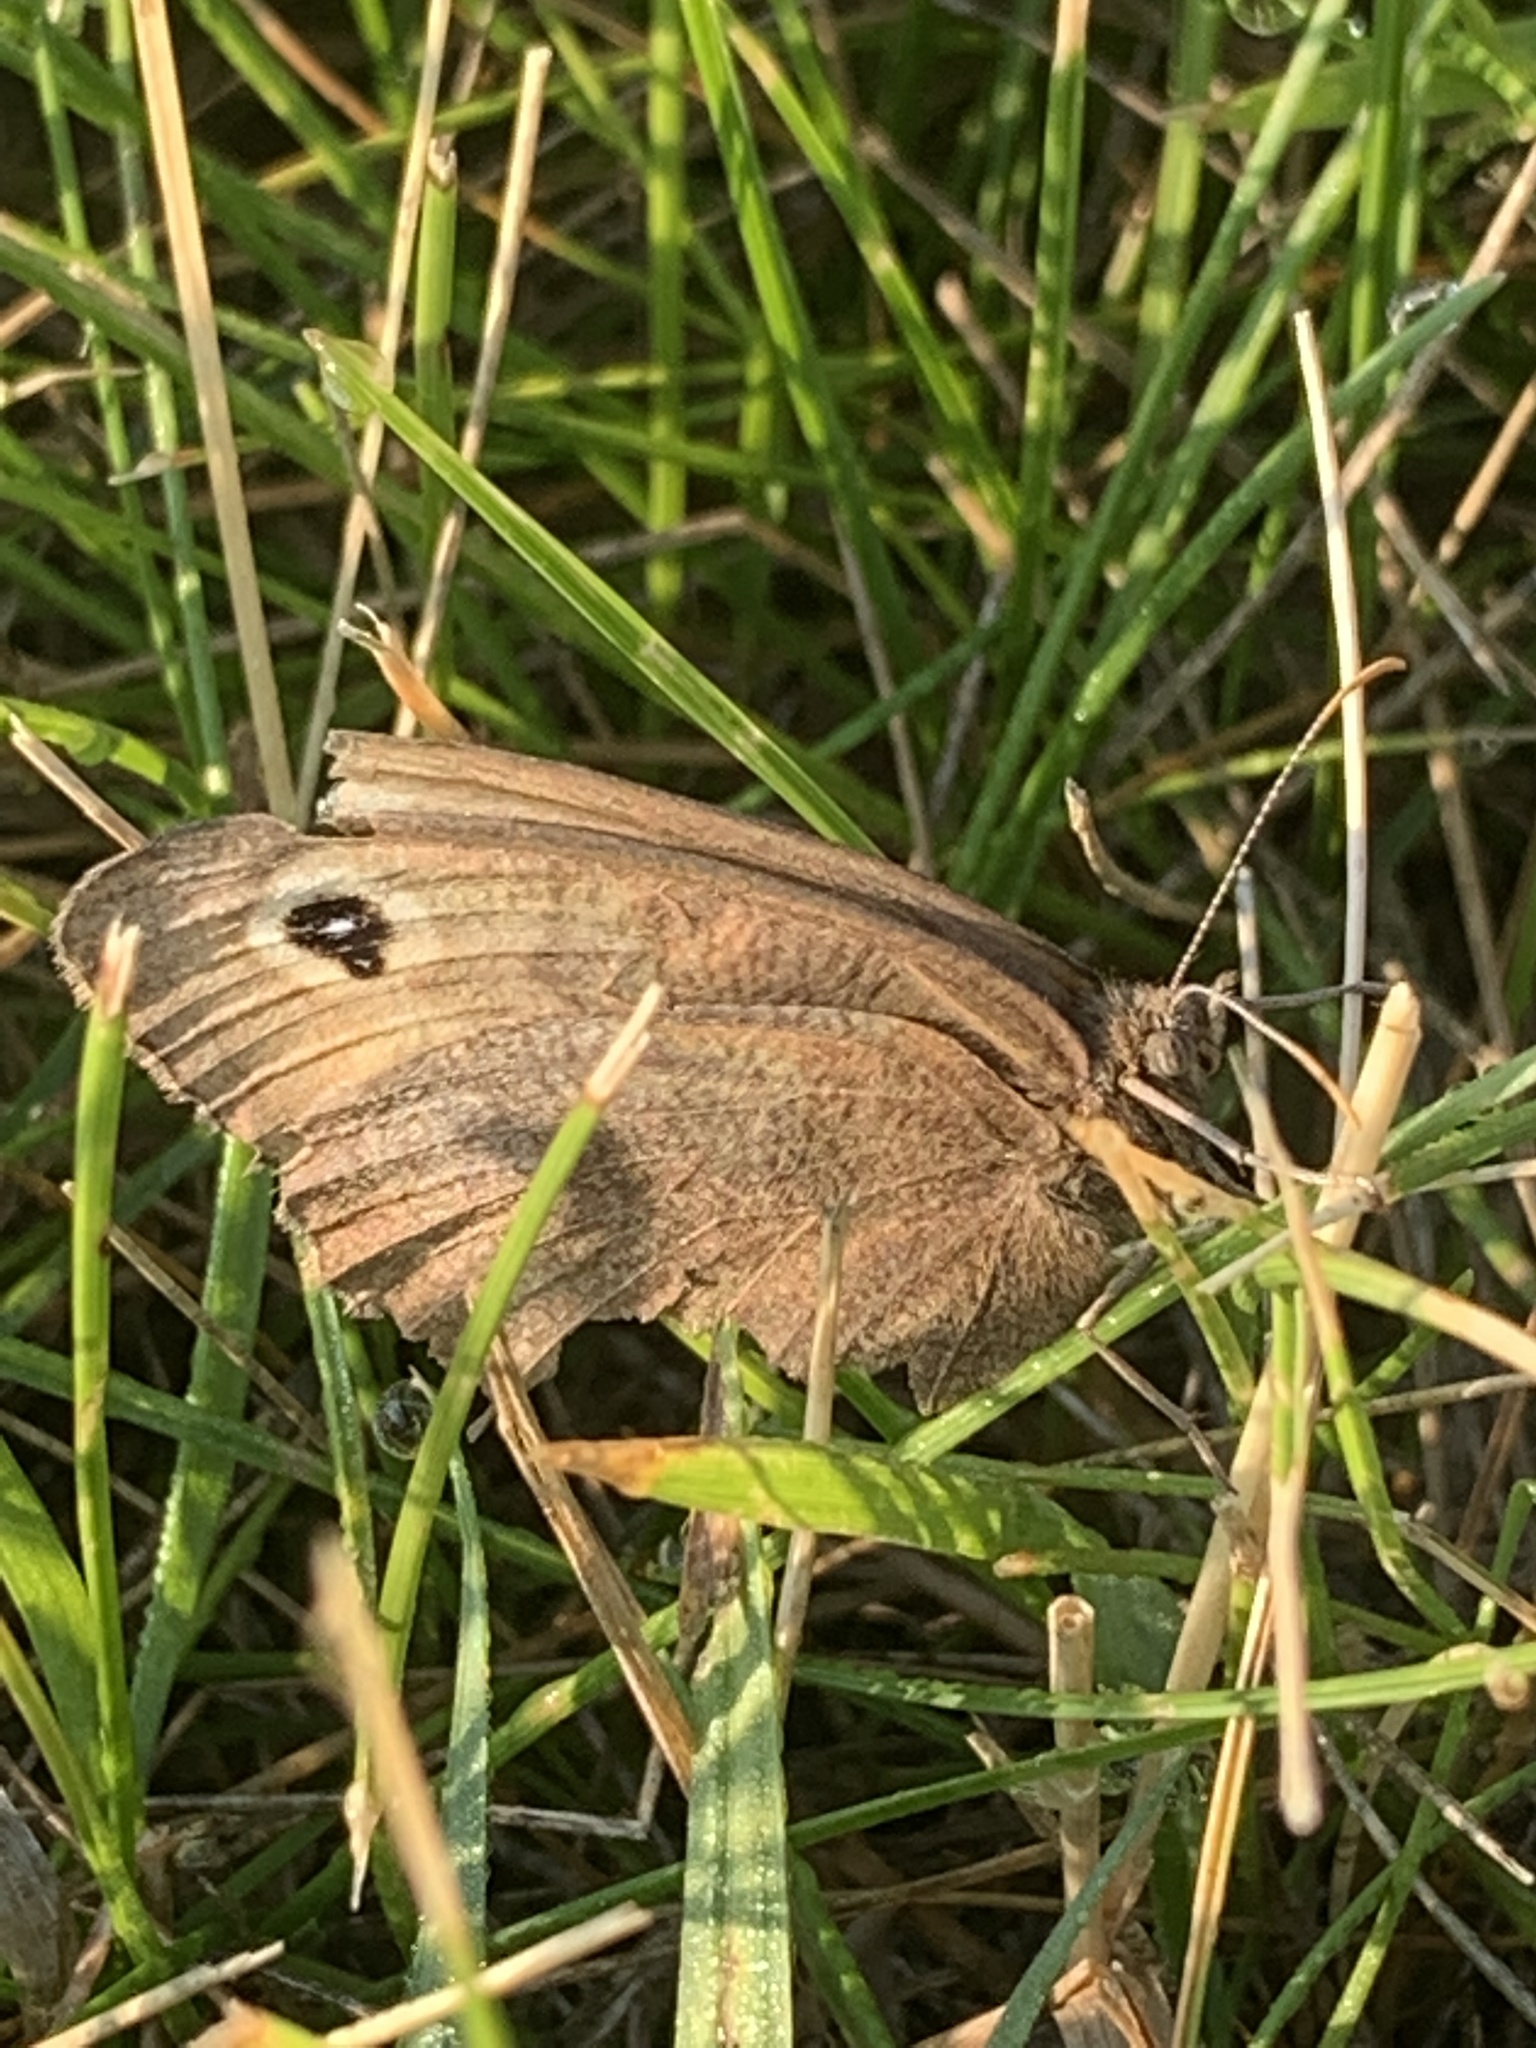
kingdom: Animalia
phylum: Arthropoda
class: Insecta
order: Lepidoptera
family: Nymphalidae
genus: Cercyonis
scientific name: Cercyonis pegala
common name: Common wood-nymph
